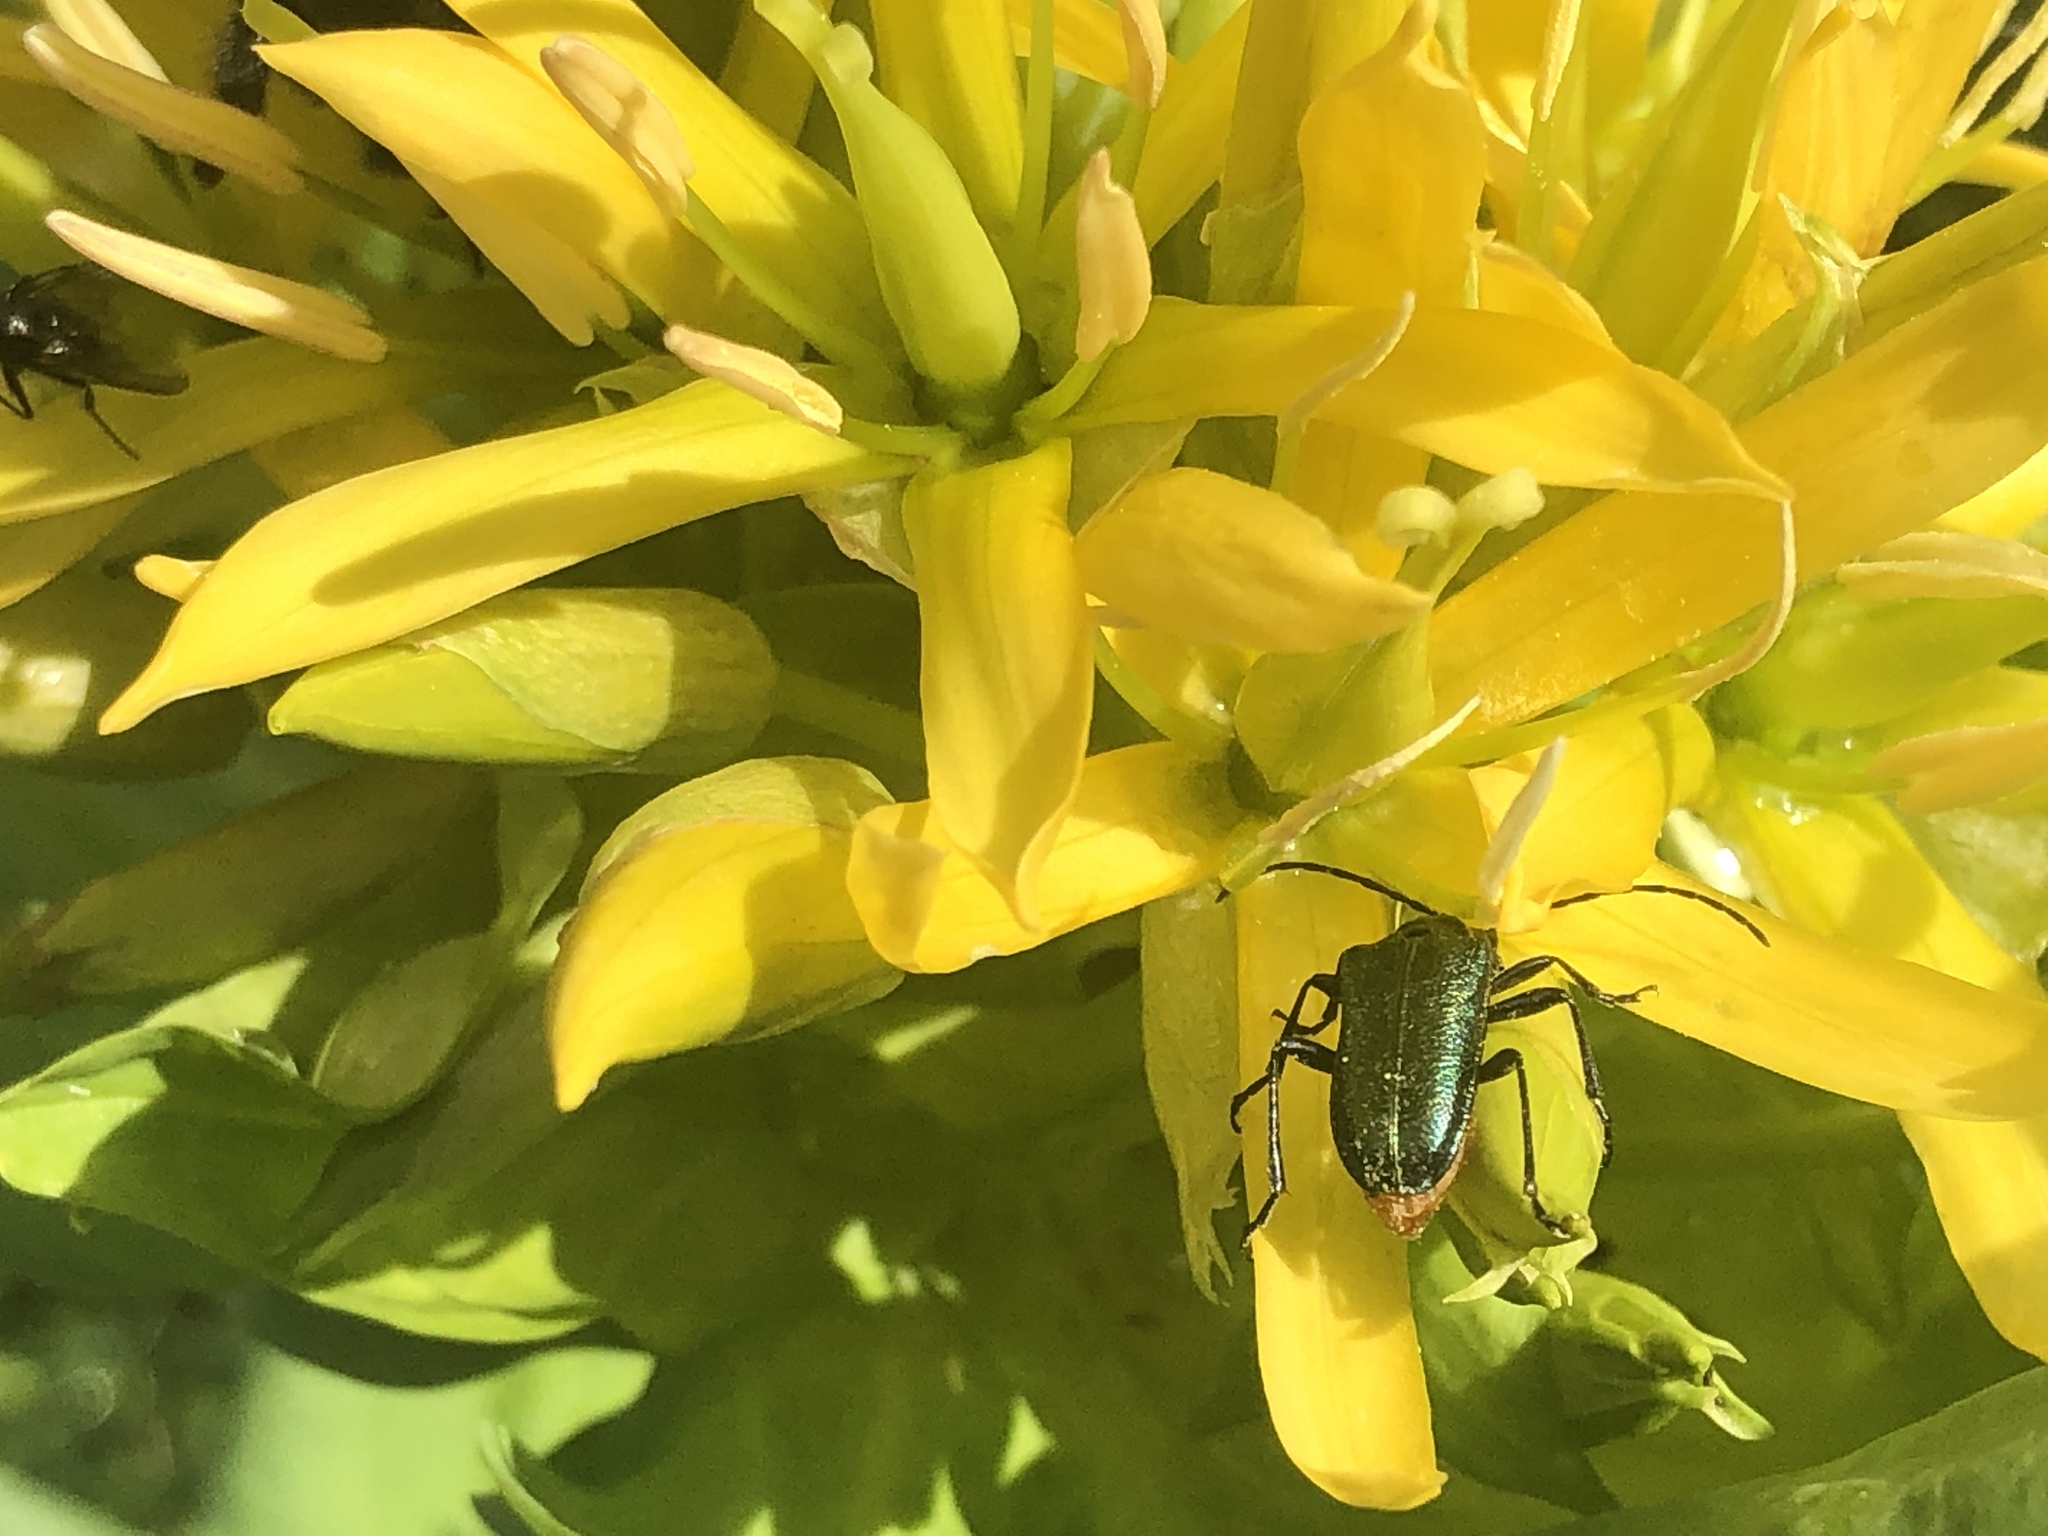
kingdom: Animalia
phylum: Arthropoda
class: Insecta
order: Coleoptera
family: Cerambycidae
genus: Gaurotes
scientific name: Gaurotes virginea
